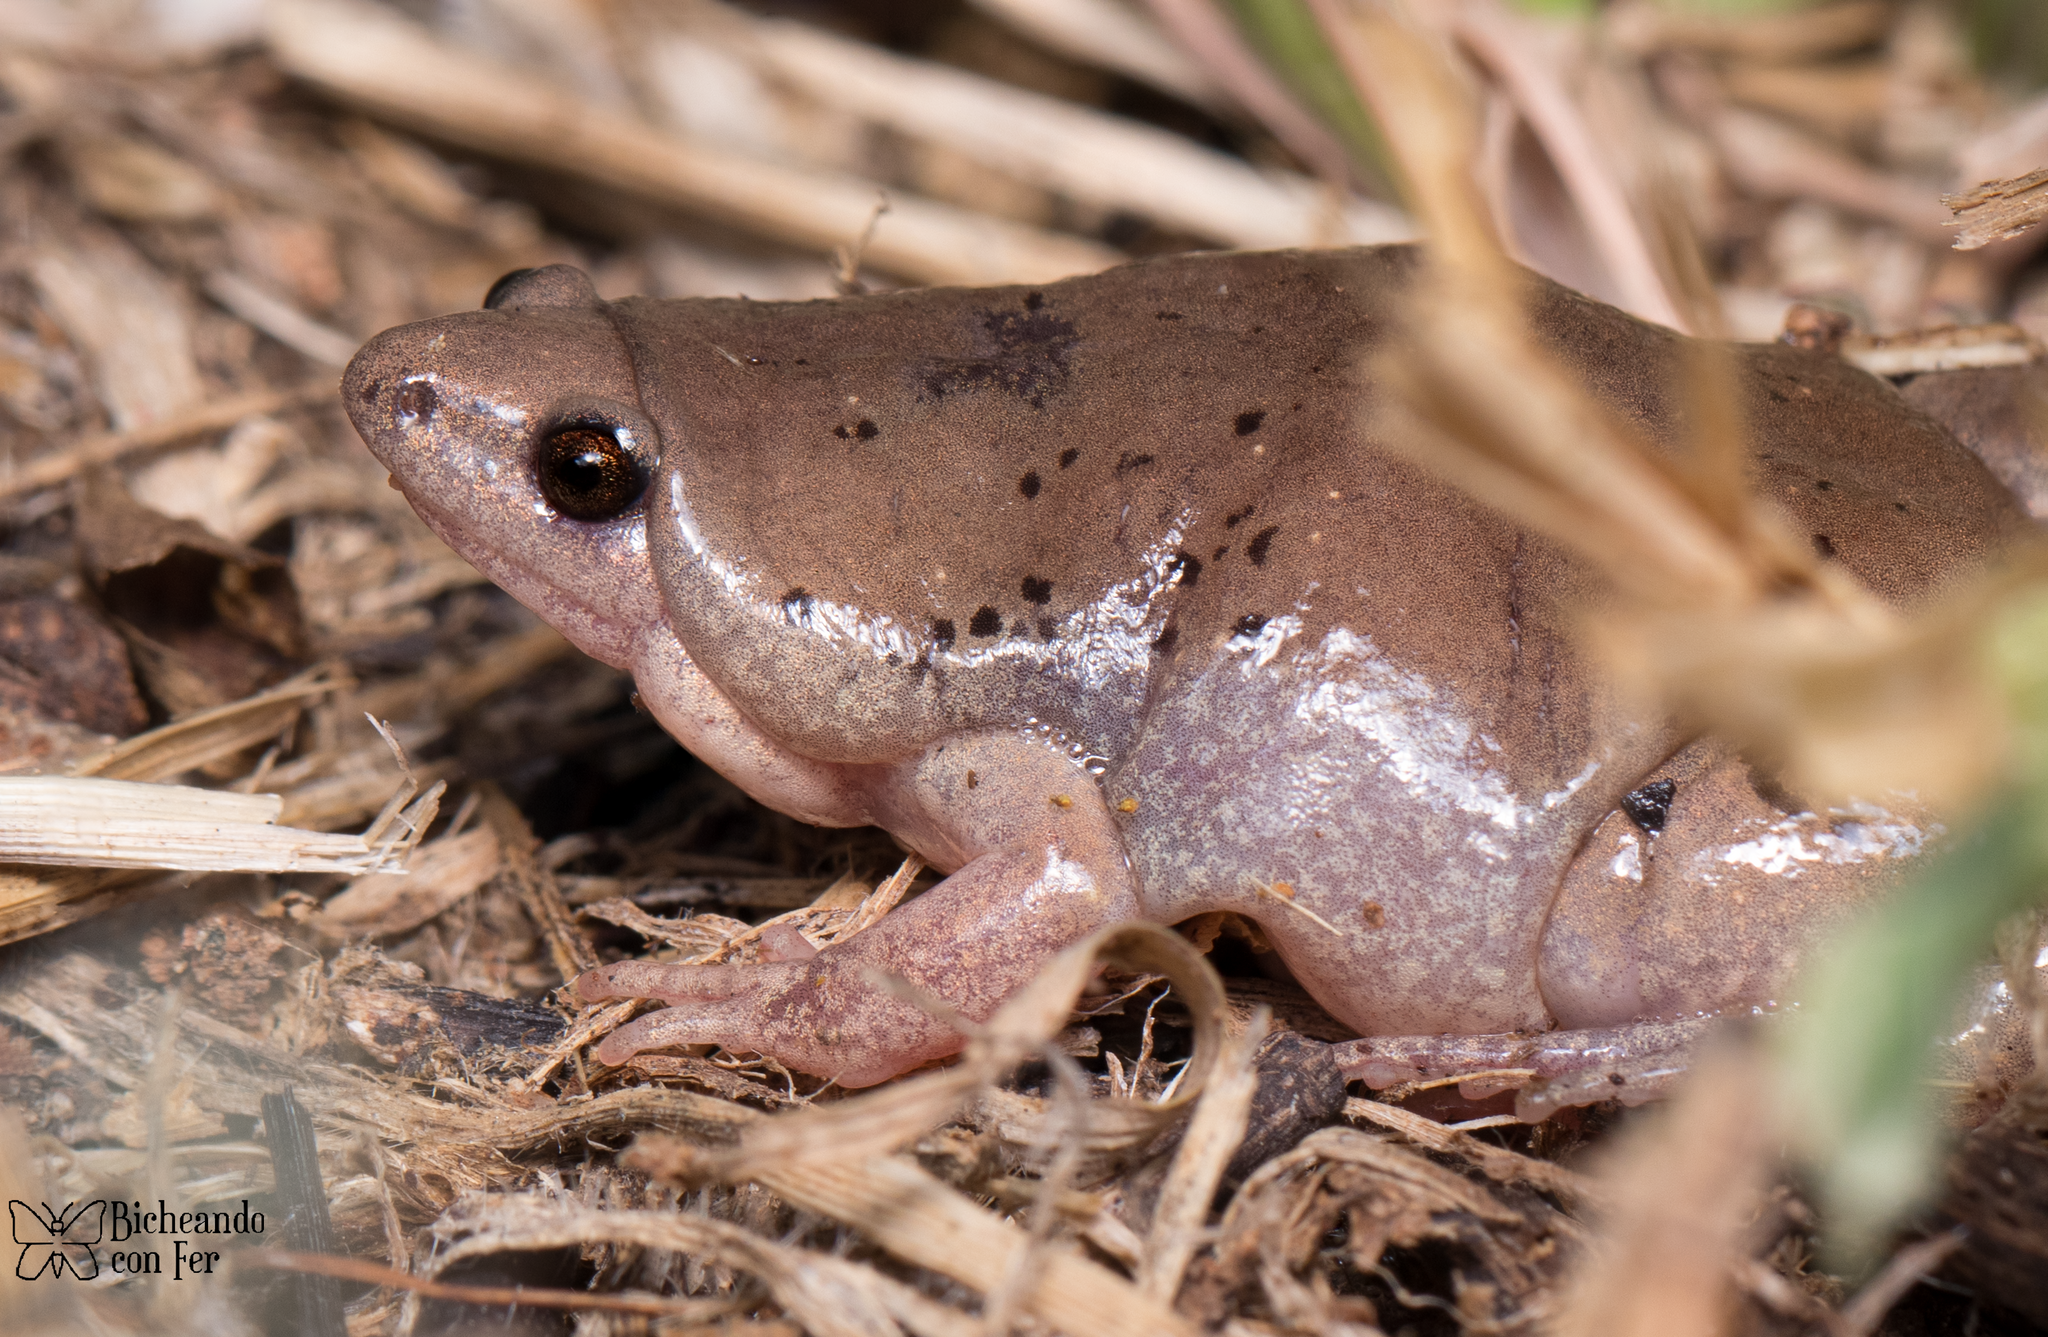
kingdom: Animalia
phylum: Chordata
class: Amphibia
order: Anura
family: Microhylidae
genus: Gastrophryne
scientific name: Gastrophryne mazatlanensis
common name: Sinaloan narrow-mouthed toad
